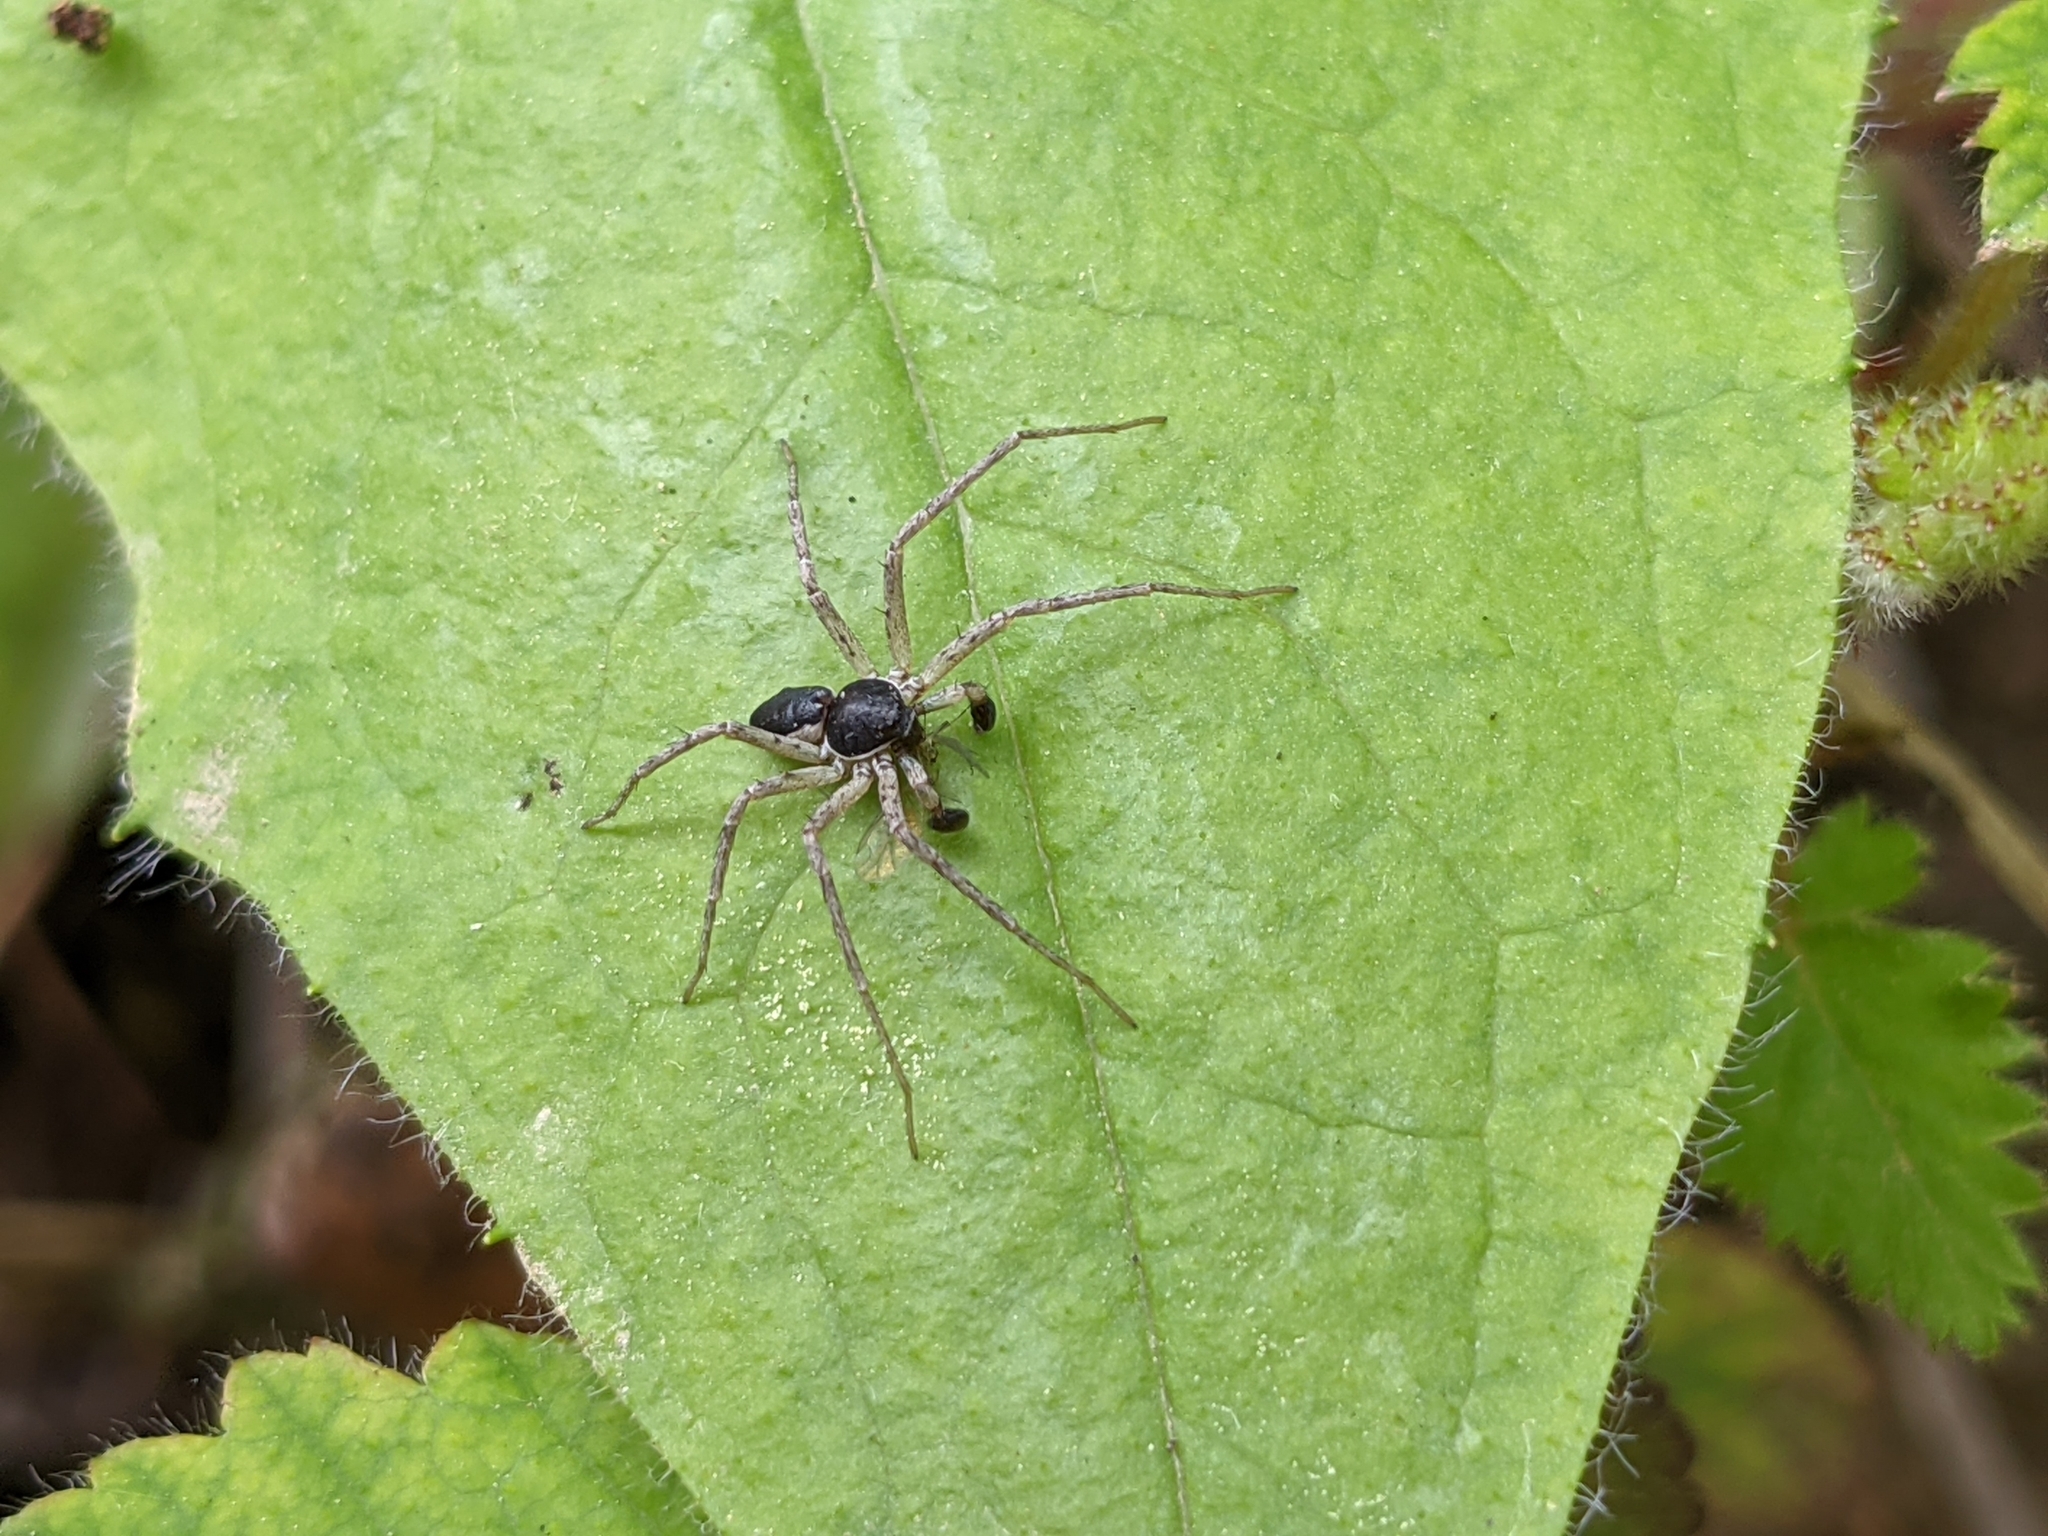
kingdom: Animalia
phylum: Arthropoda
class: Arachnida
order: Araneae
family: Philodromidae
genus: Philodromus
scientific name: Philodromus dispar
